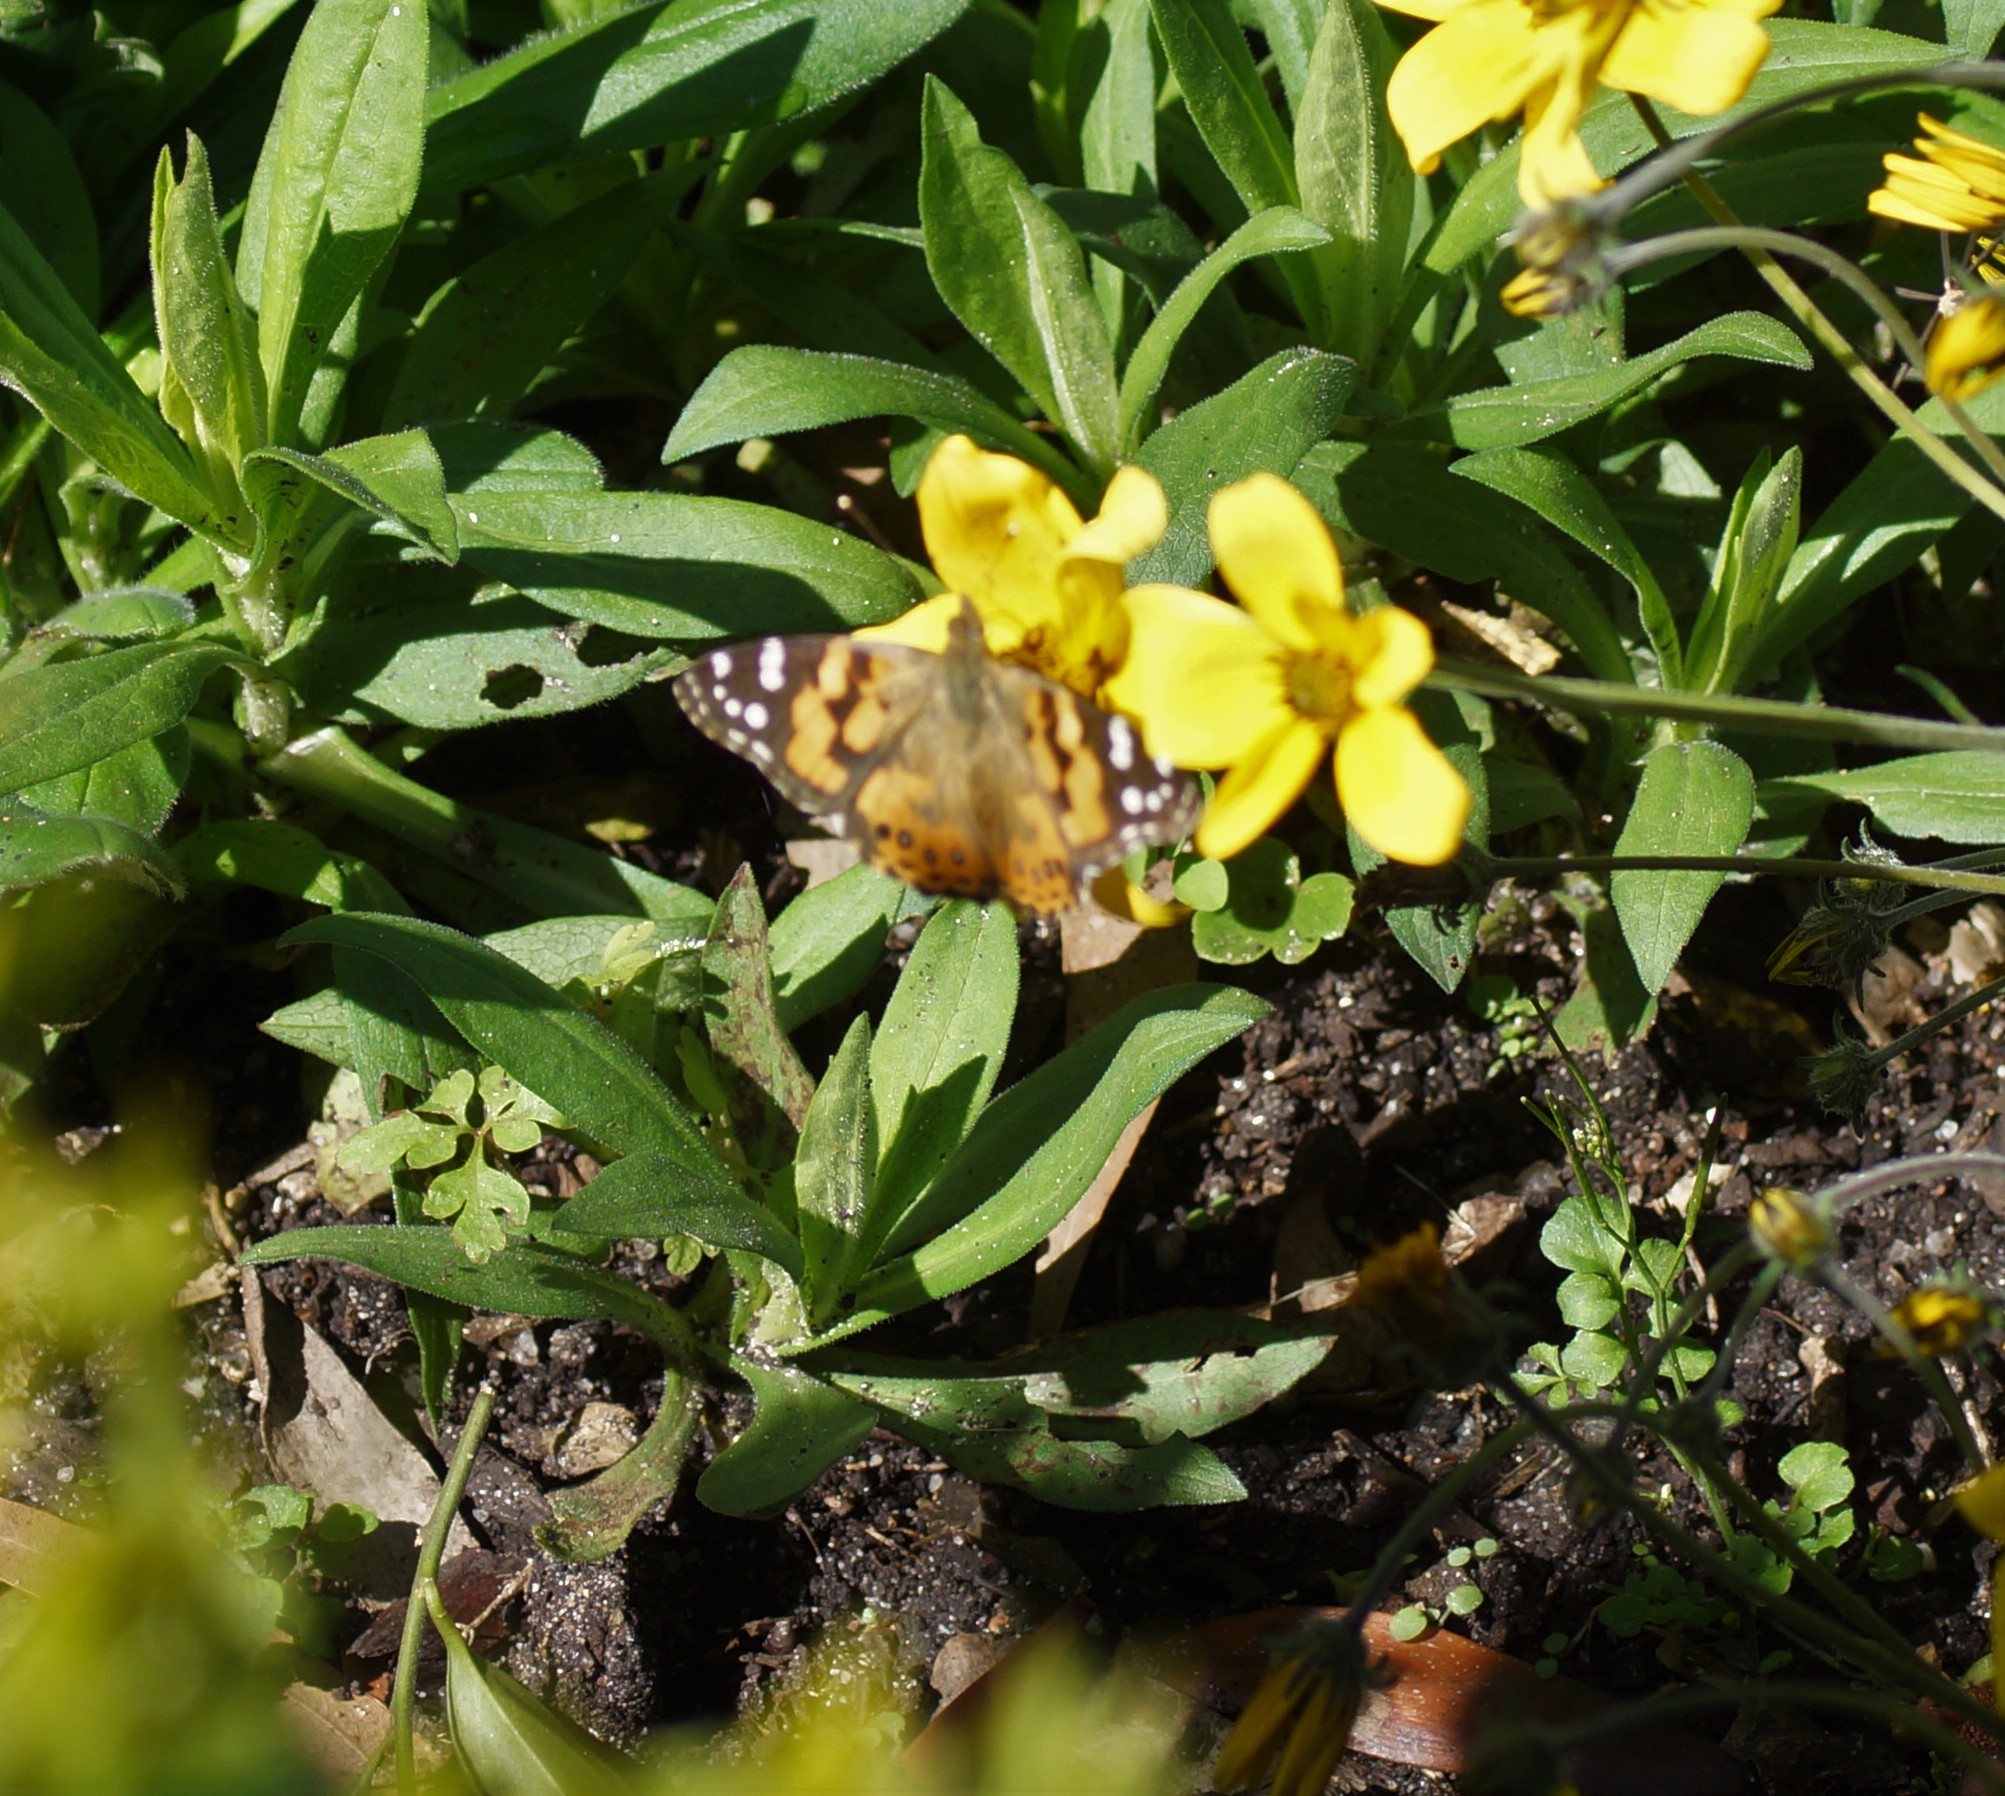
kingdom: Animalia
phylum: Arthropoda
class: Insecta
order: Lepidoptera
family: Nymphalidae
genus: Vanessa
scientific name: Vanessa kershawi
